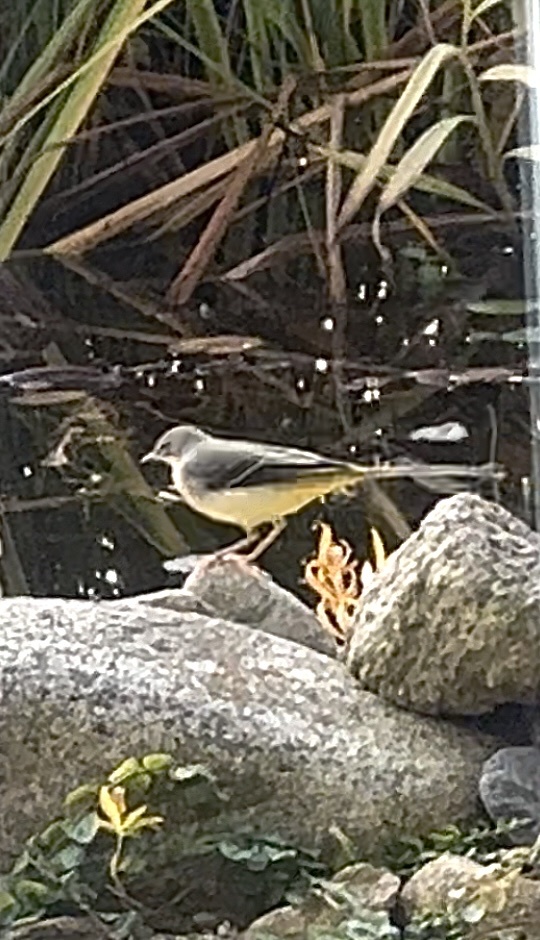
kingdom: Animalia
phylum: Chordata
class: Aves
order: Passeriformes
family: Motacillidae
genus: Motacilla
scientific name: Motacilla cinerea
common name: Grey wagtail
